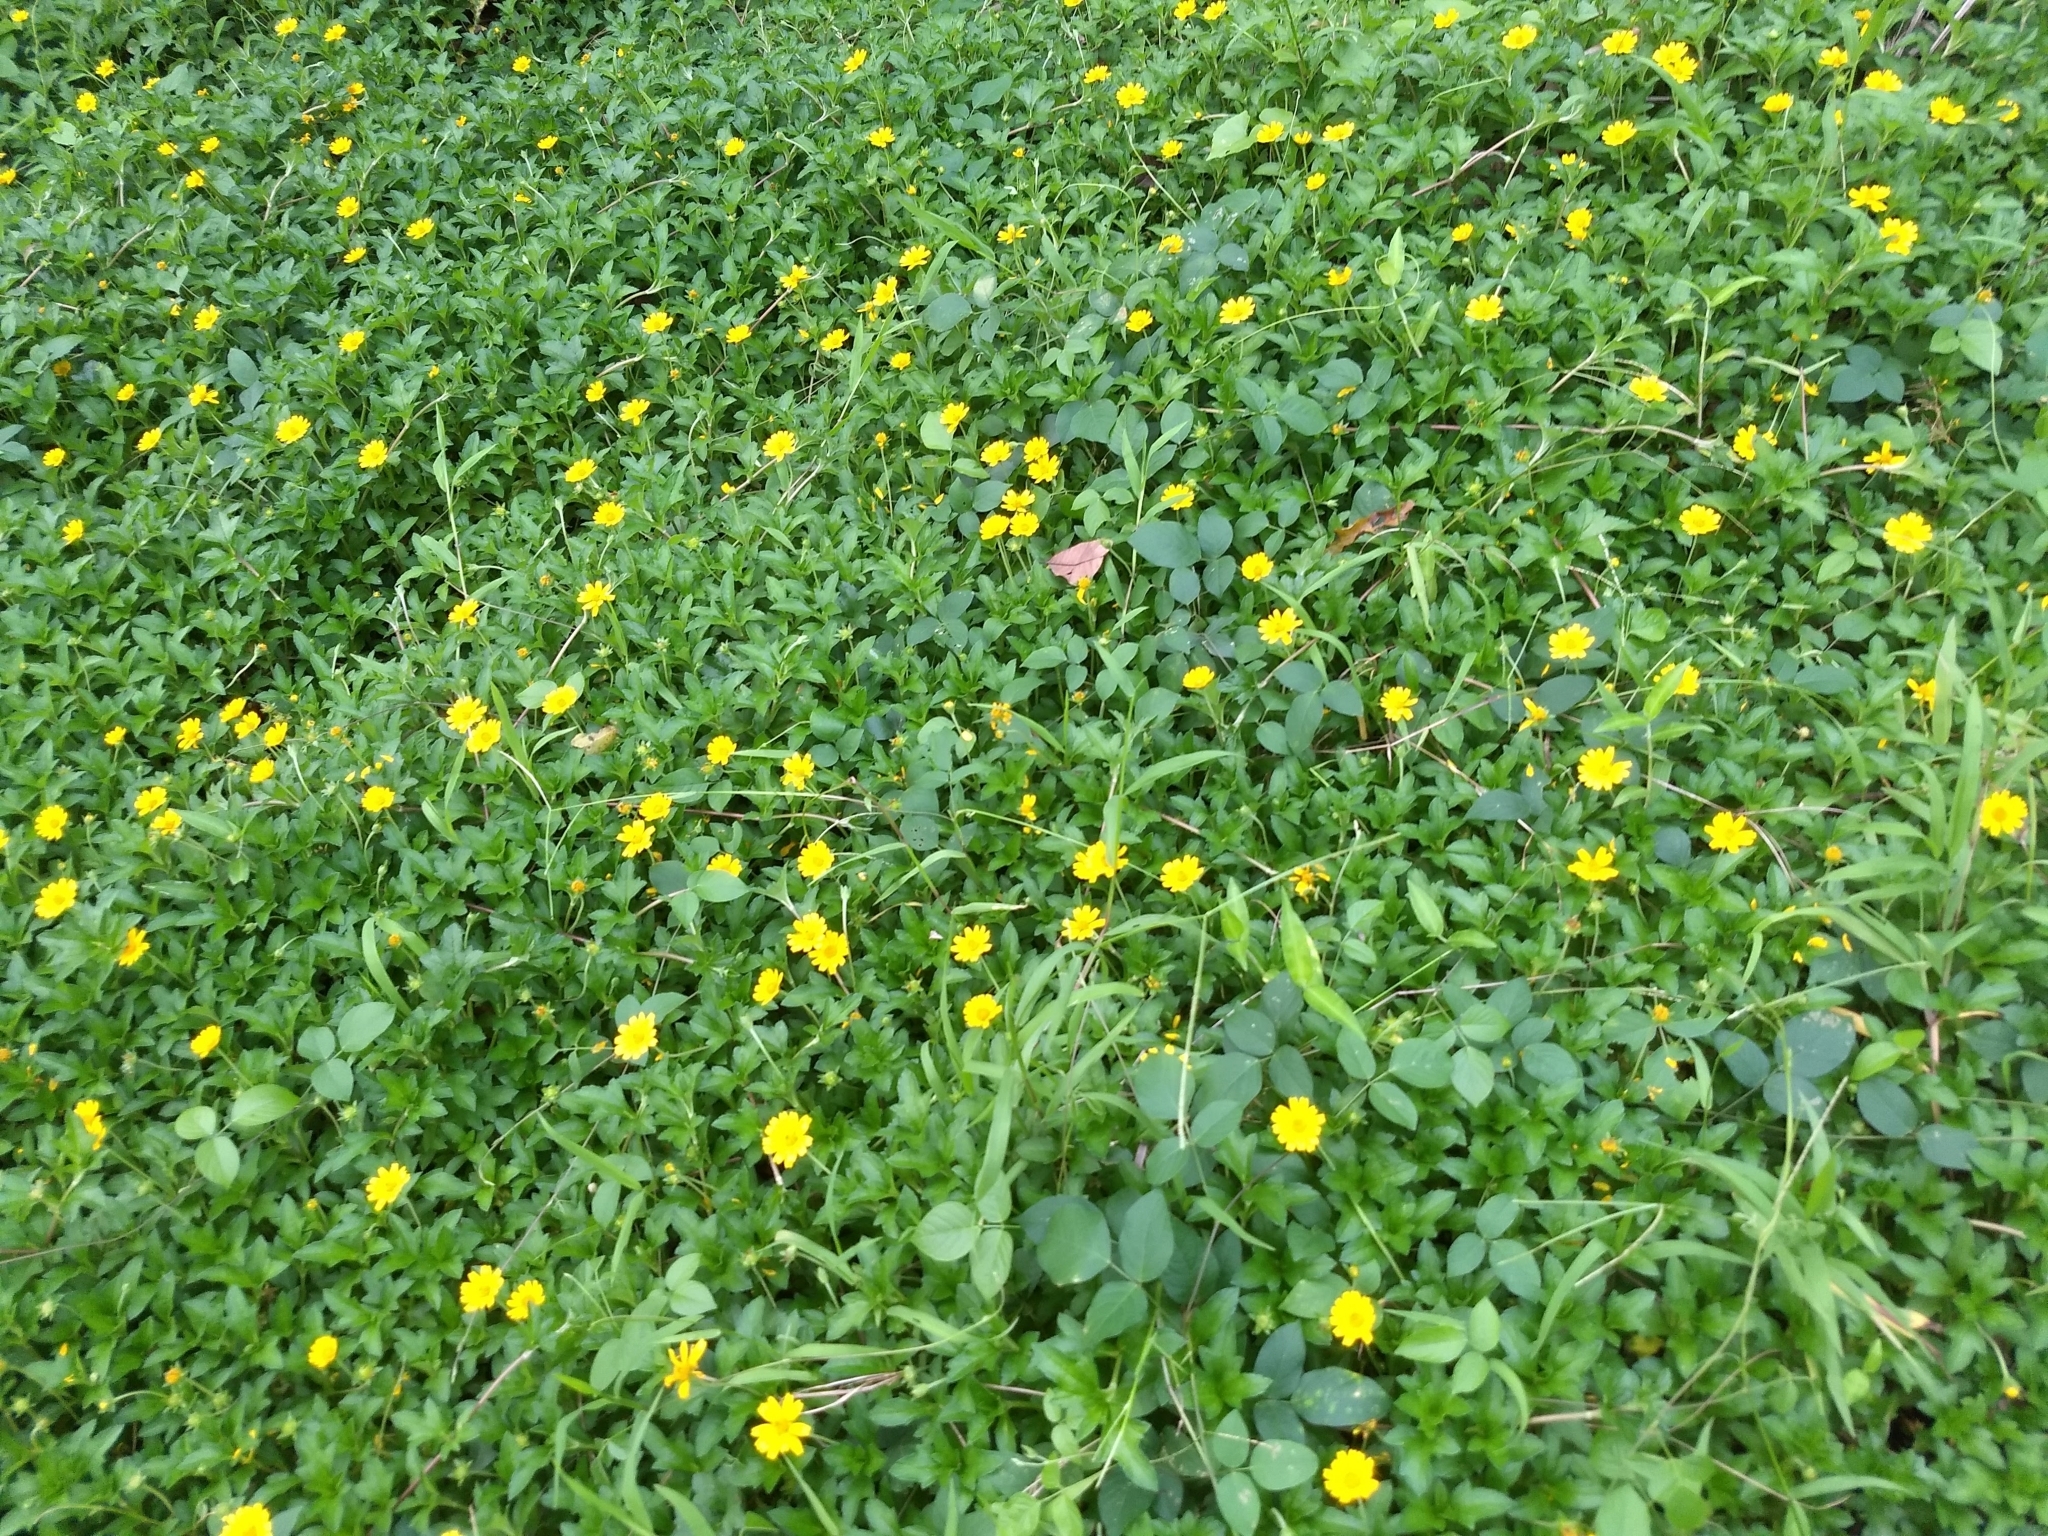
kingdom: Plantae
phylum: Tracheophyta
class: Magnoliopsida
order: Asterales
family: Asteraceae
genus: Sphagneticola
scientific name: Sphagneticola trilobata
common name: Bay biscayne creeping-oxeye
